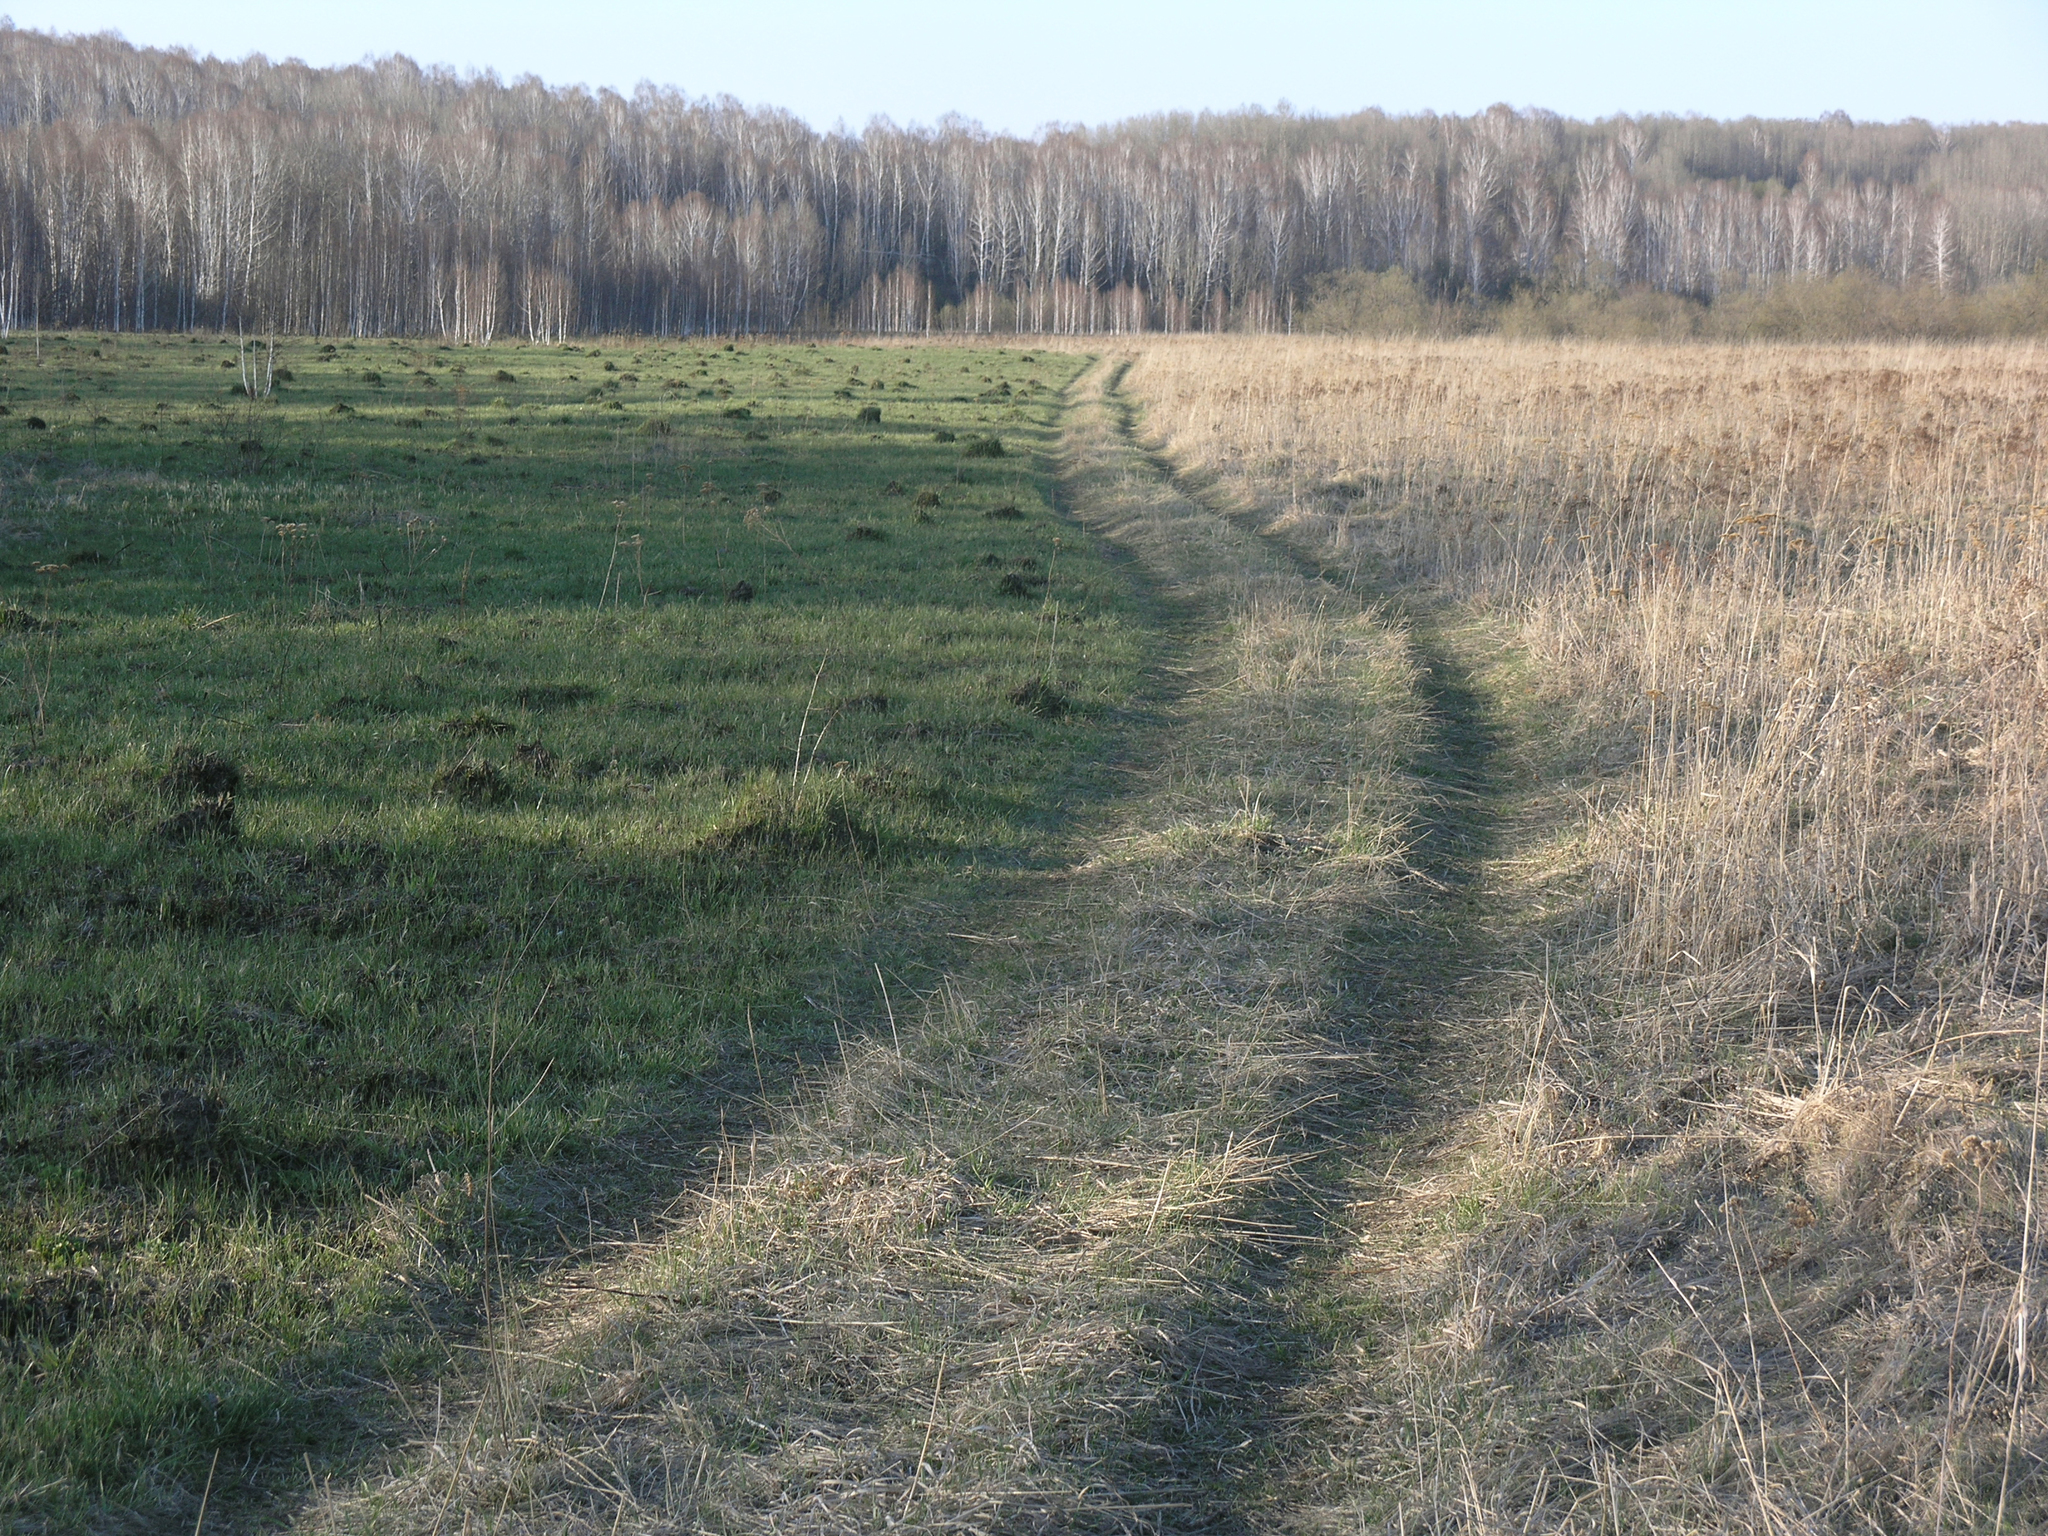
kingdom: Plantae
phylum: Tracheophyta
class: Magnoliopsida
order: Fagales
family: Betulaceae
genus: Betula
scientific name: Betula pendula
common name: Silver birch
